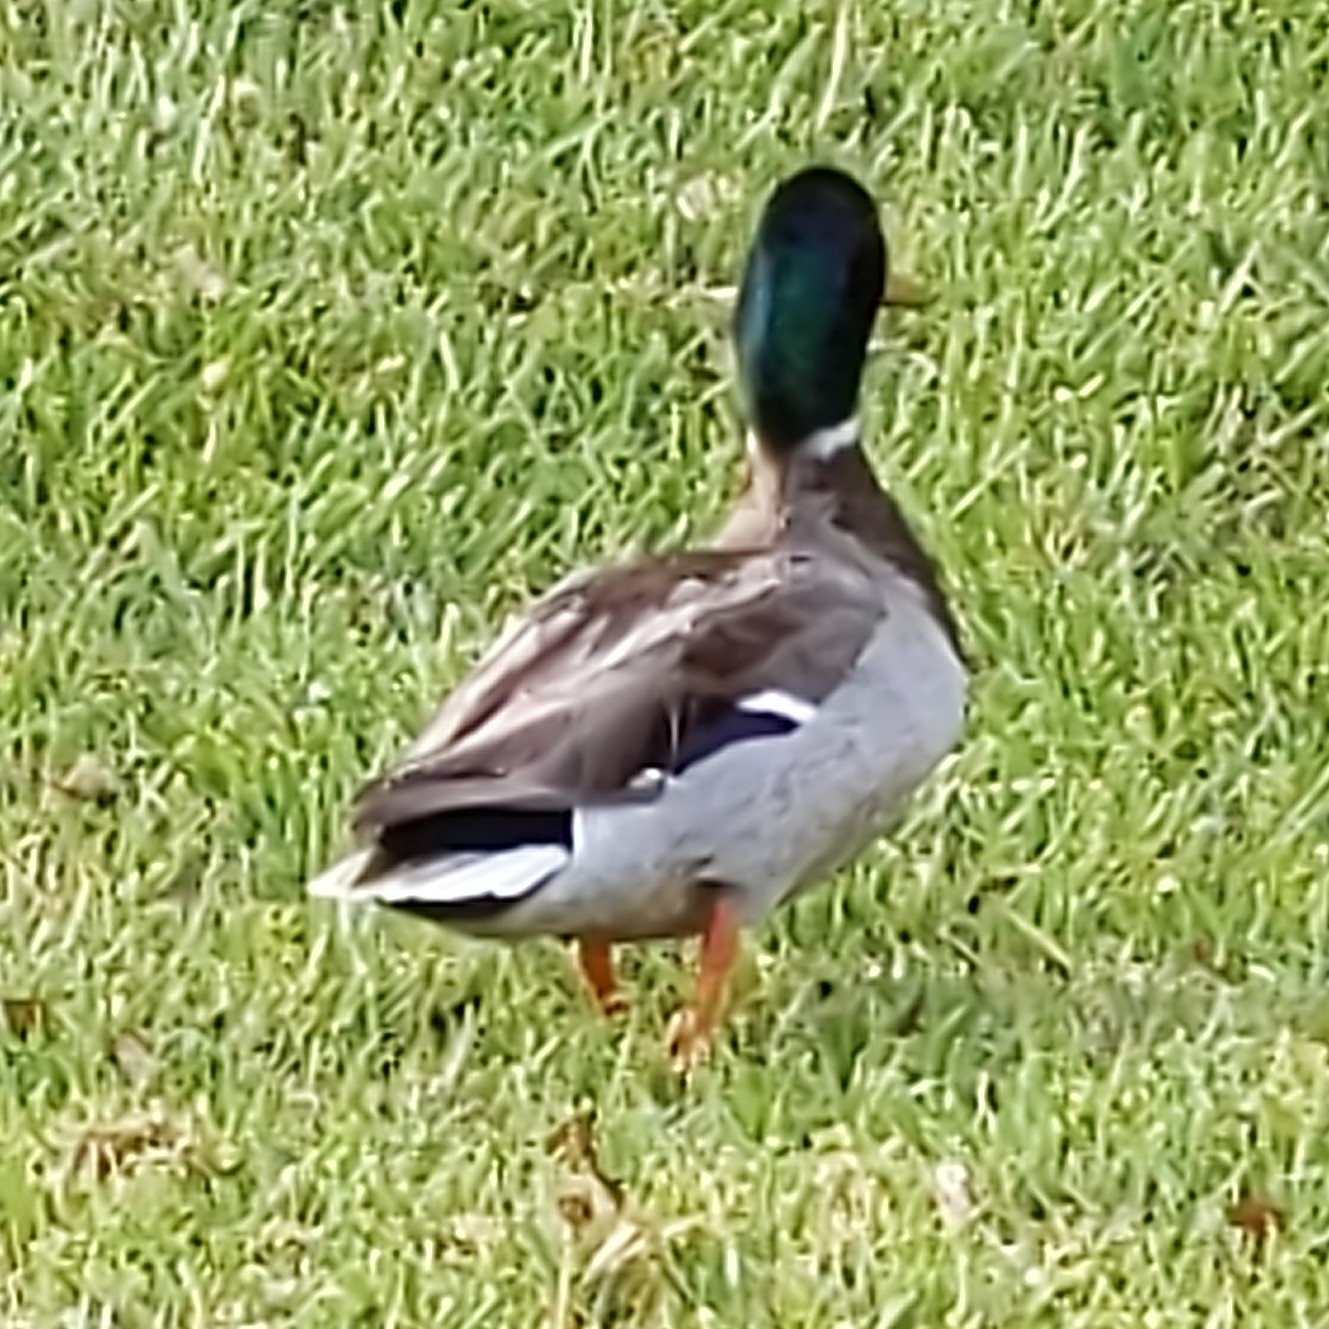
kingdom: Animalia
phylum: Chordata
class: Aves
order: Anseriformes
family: Anatidae
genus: Anas
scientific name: Anas platyrhynchos
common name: Mallard
